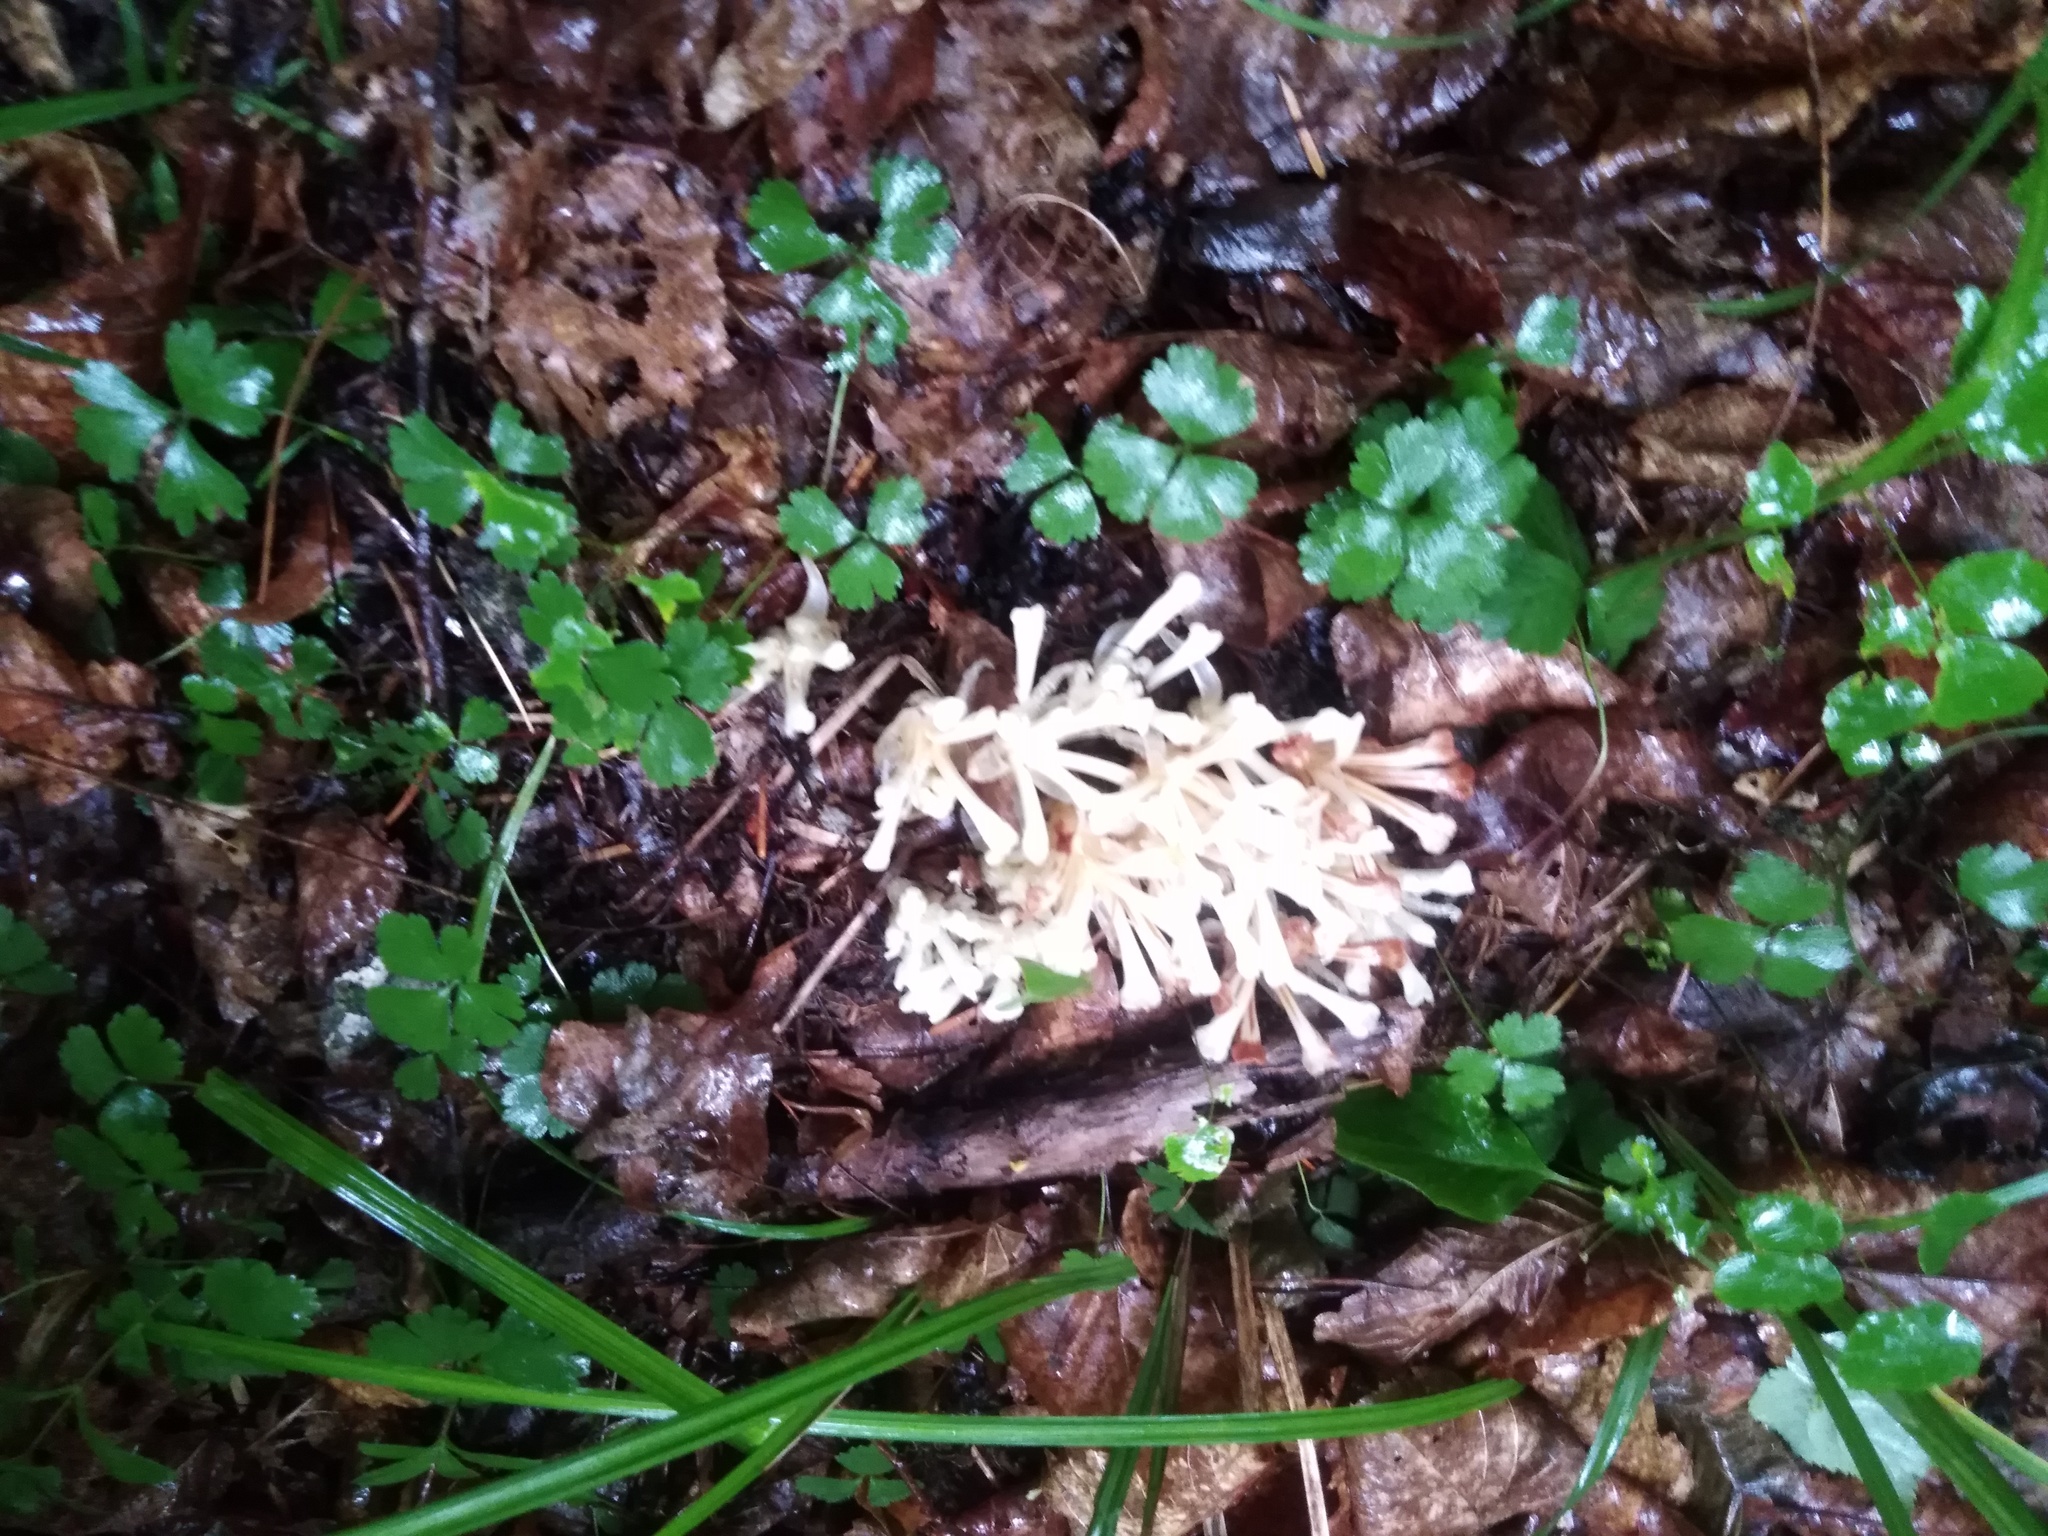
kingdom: Plantae
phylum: Tracheophyta
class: Magnoliopsida
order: Lamiales
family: Orobanchaceae
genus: Phacellanthus
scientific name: Phacellanthus tubiflorus
